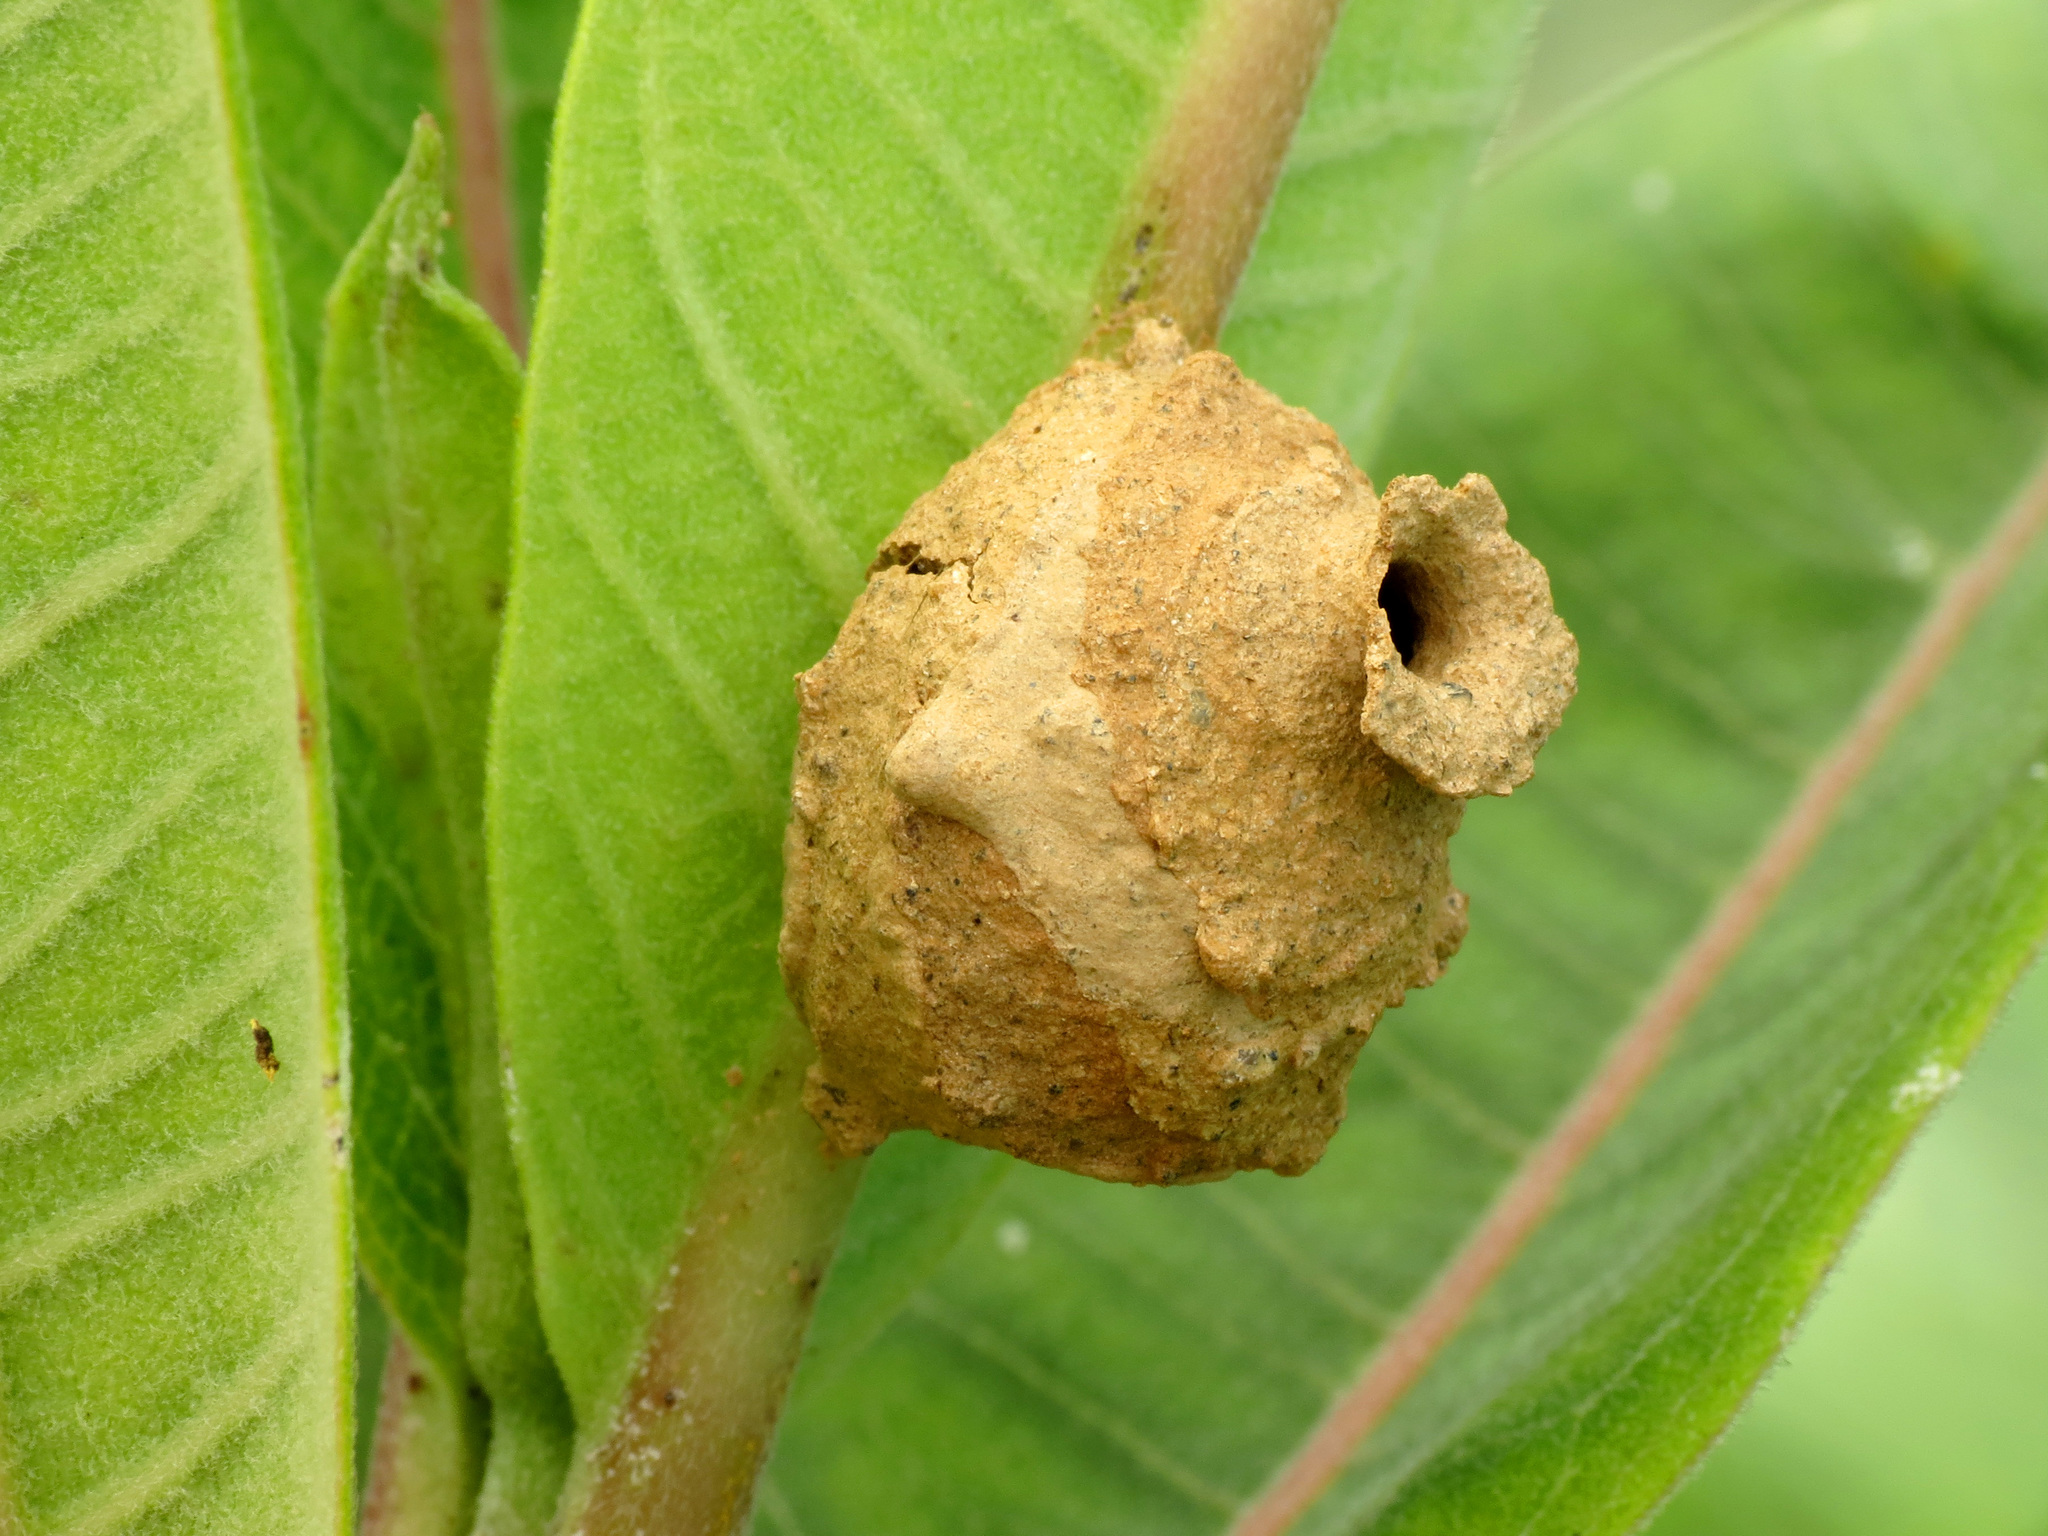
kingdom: Animalia
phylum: Arthropoda
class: Insecta
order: Hymenoptera
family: Vespidae
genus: Eumenes
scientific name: Eumenes
